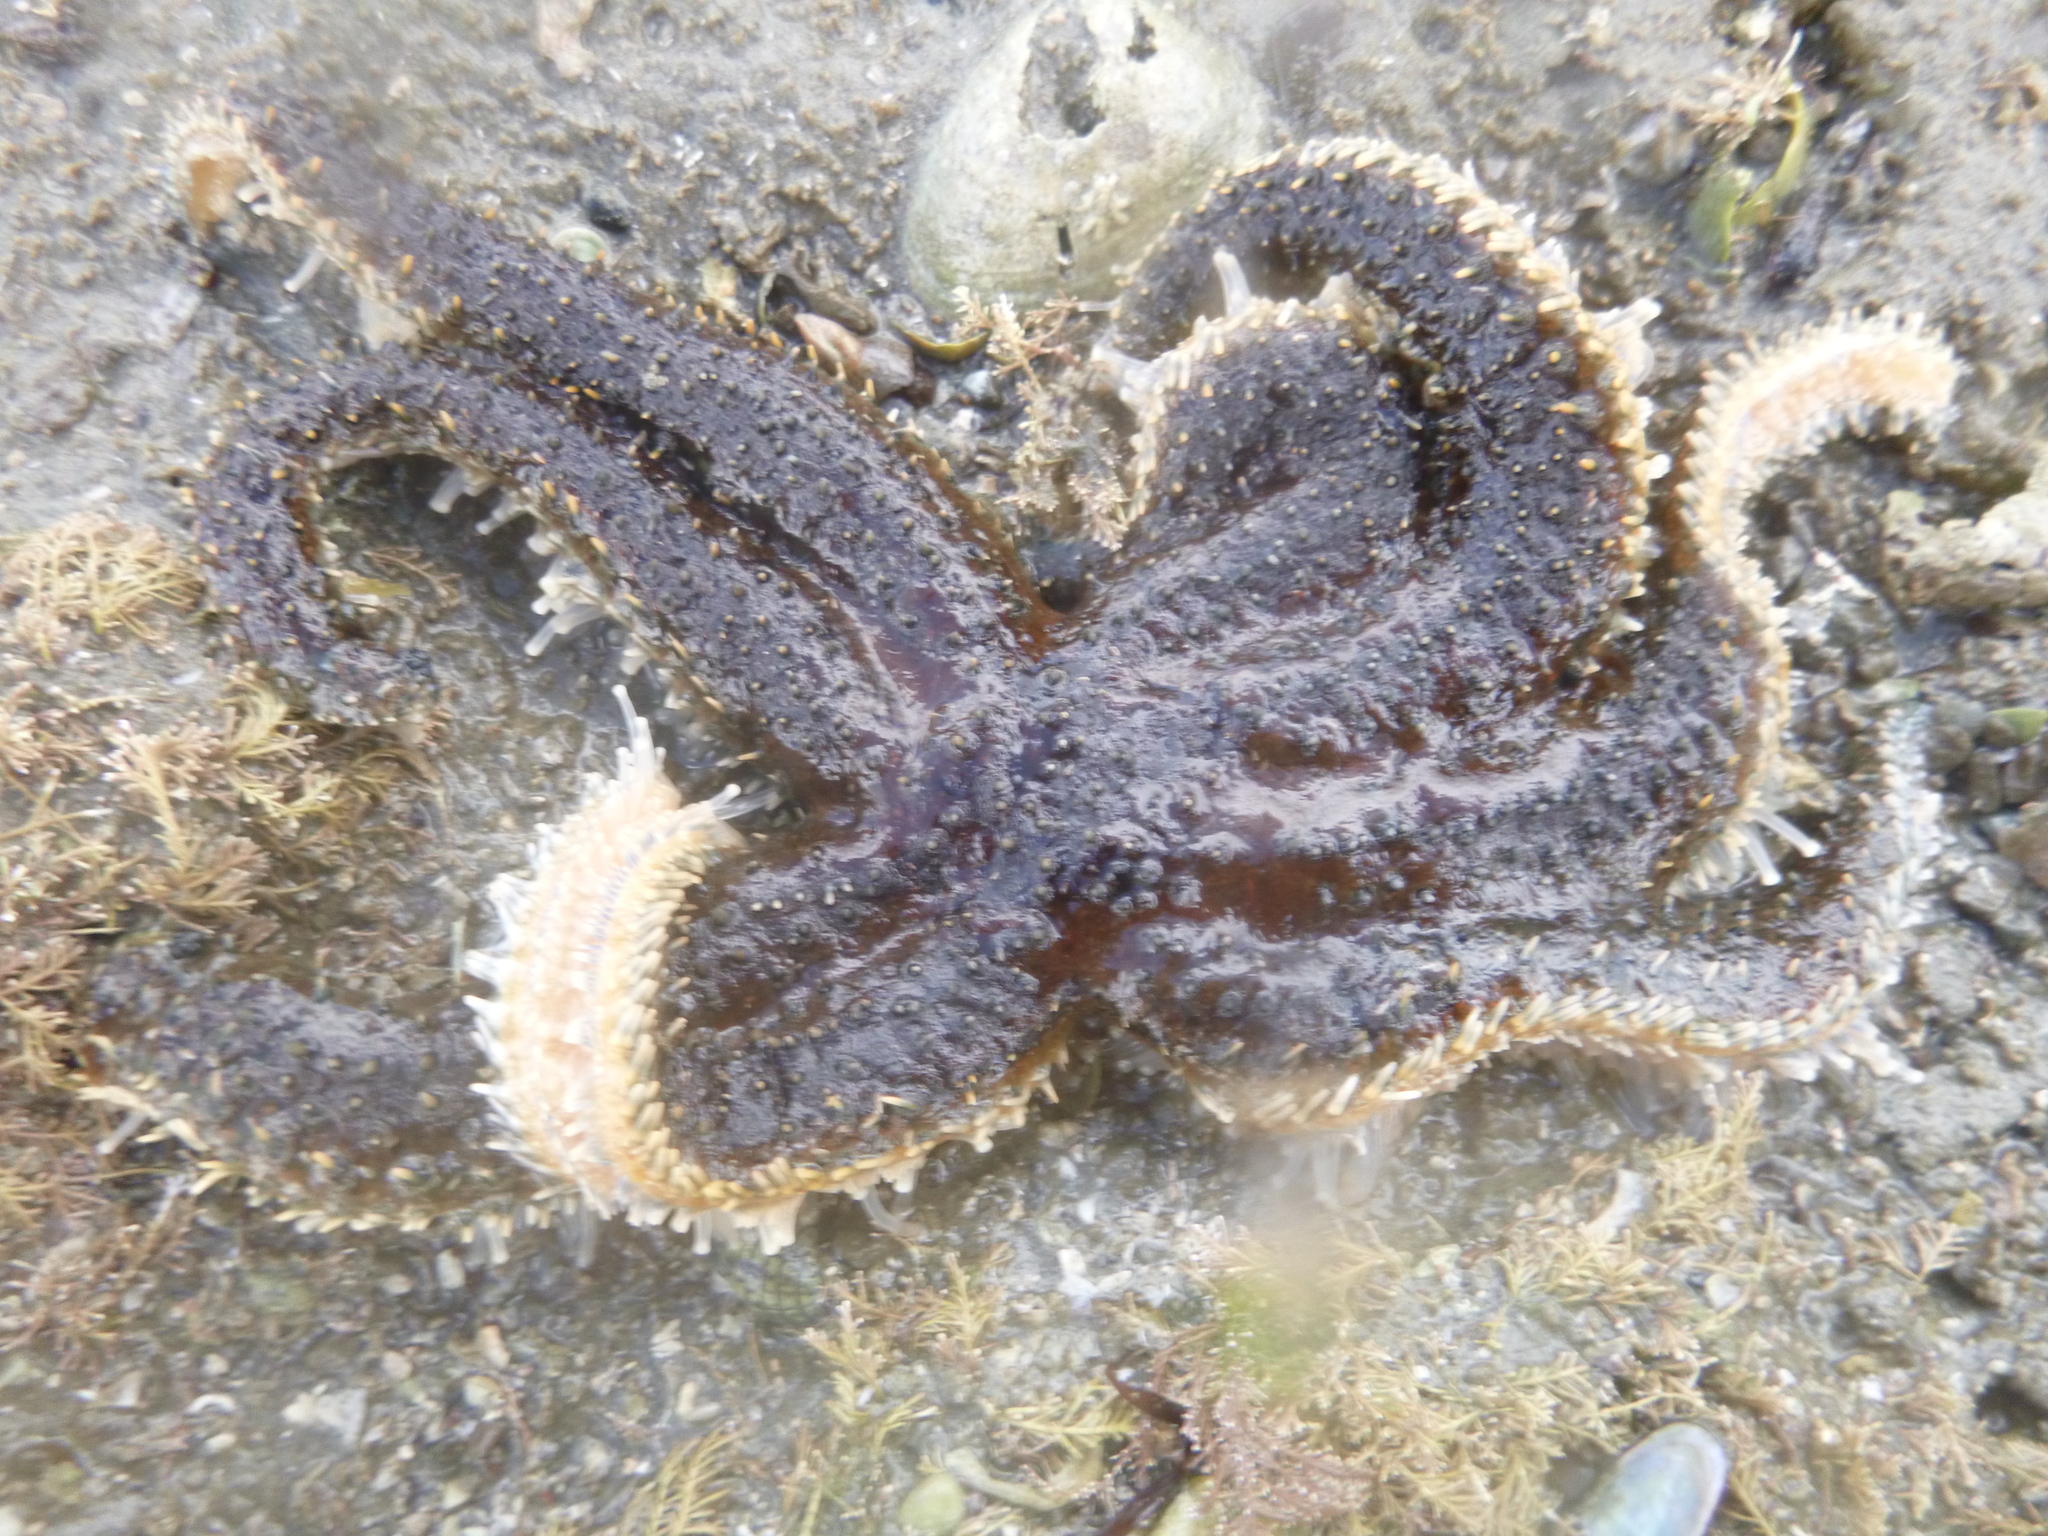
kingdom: Animalia
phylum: Echinodermata
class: Asteroidea
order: Forcipulatida
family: Asteriidae
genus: Coscinasterias
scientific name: Coscinasterias muricata
